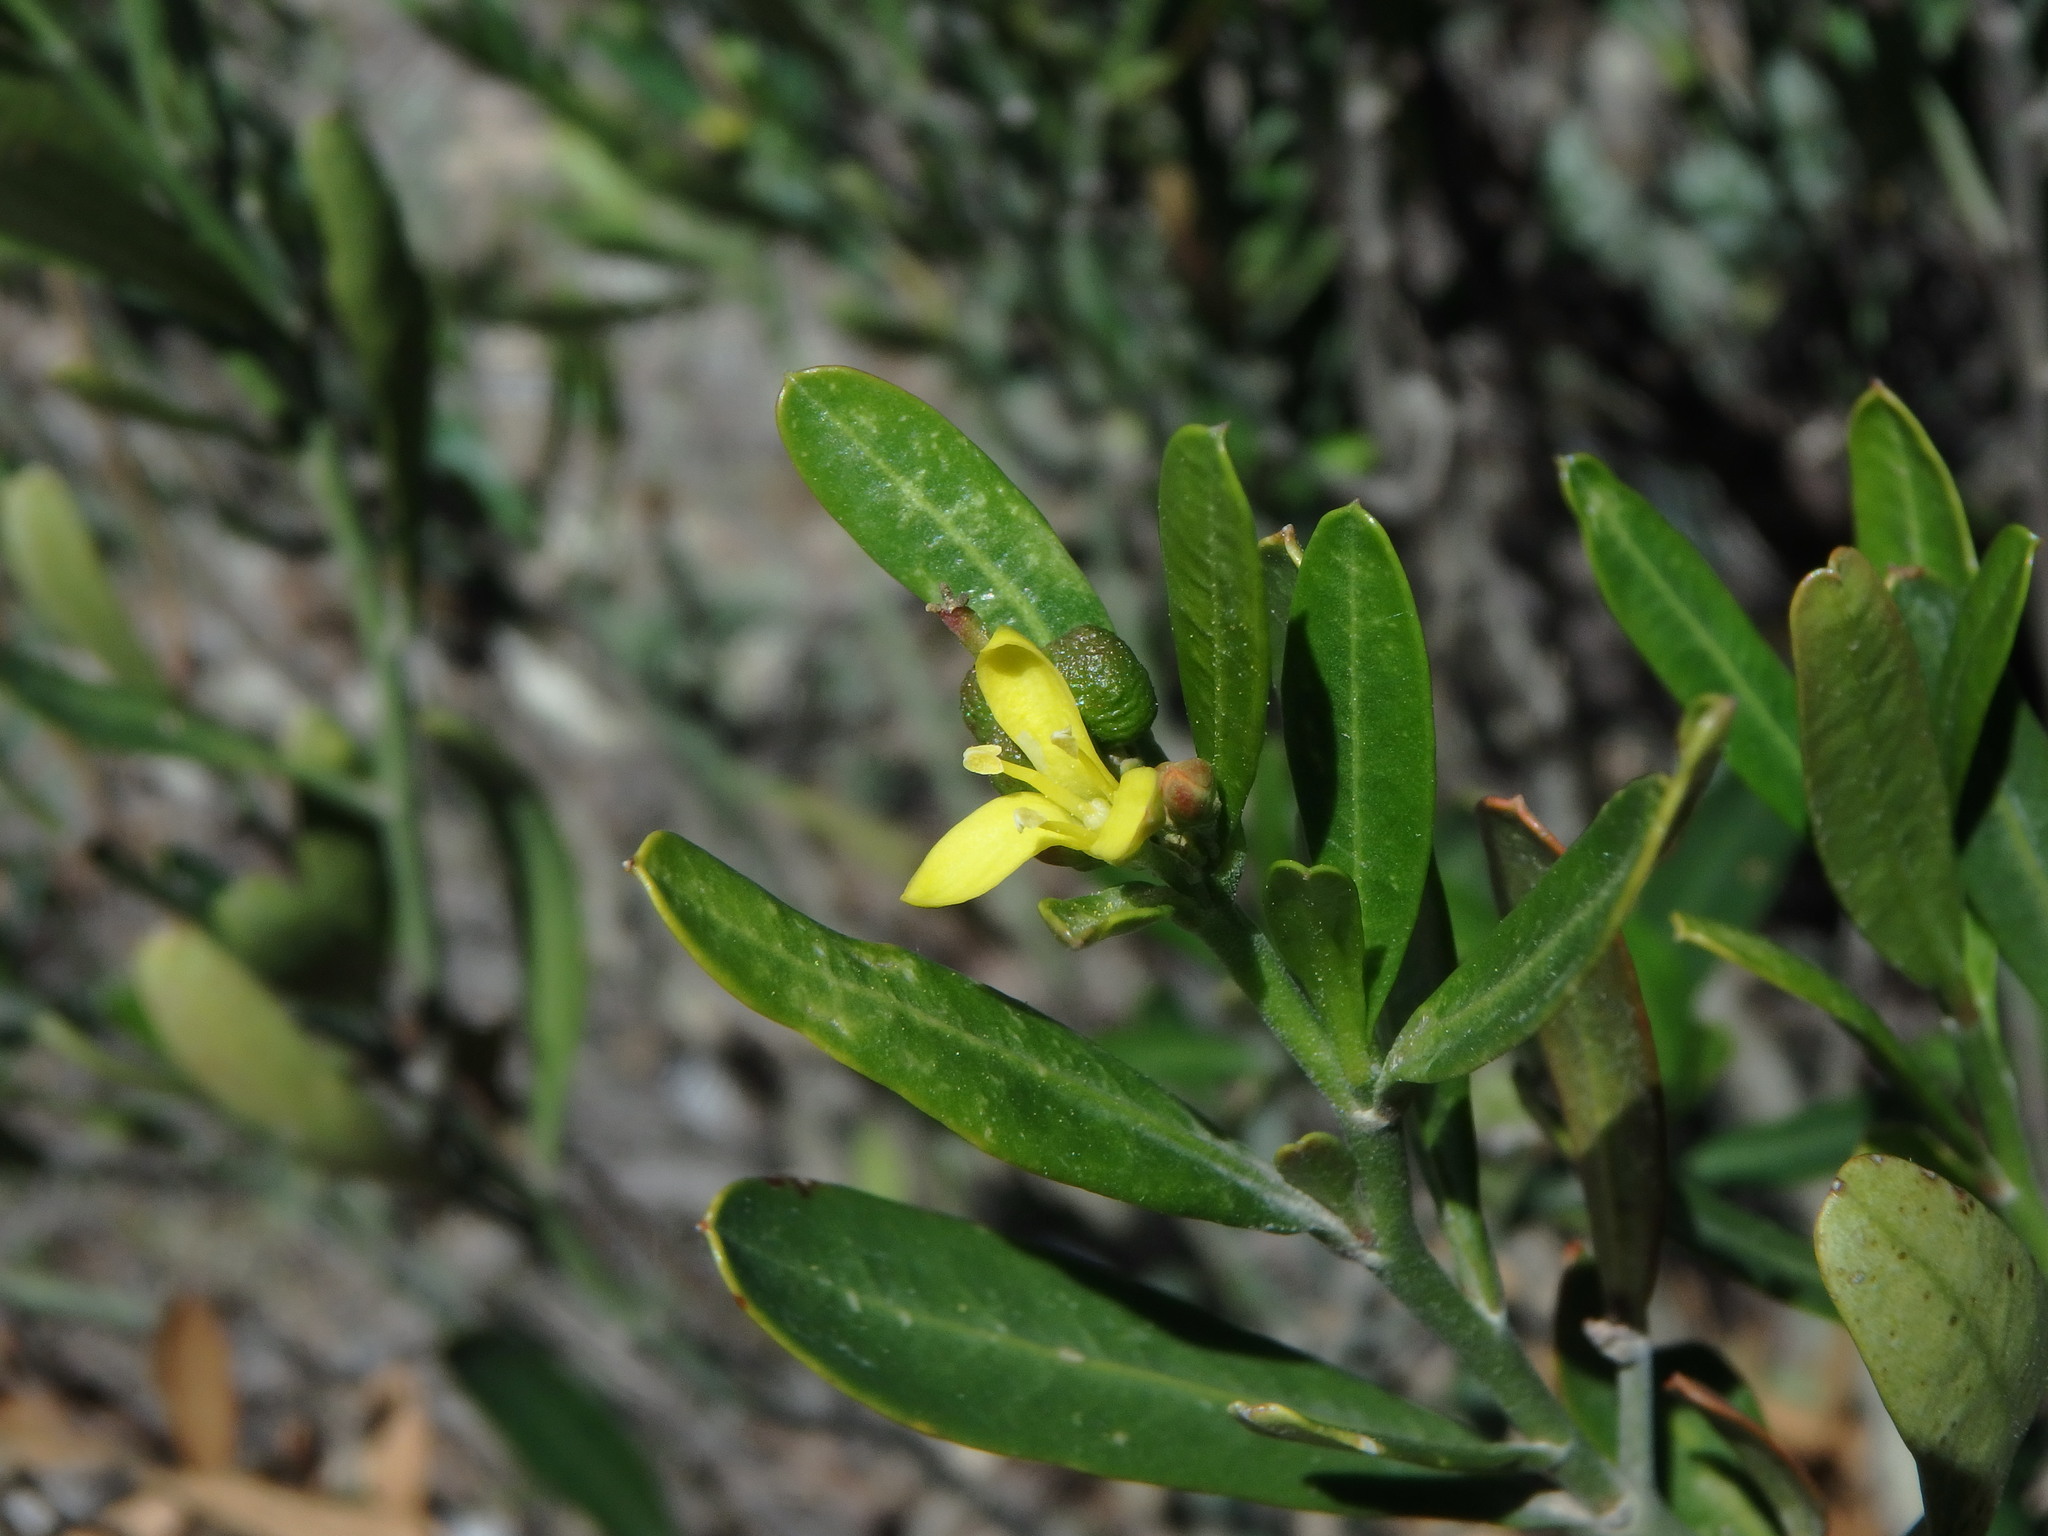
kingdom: Plantae
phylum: Tracheophyta
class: Magnoliopsida
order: Sapindales
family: Rutaceae
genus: Cneorum
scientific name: Cneorum tricoccon
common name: Spurge olive
